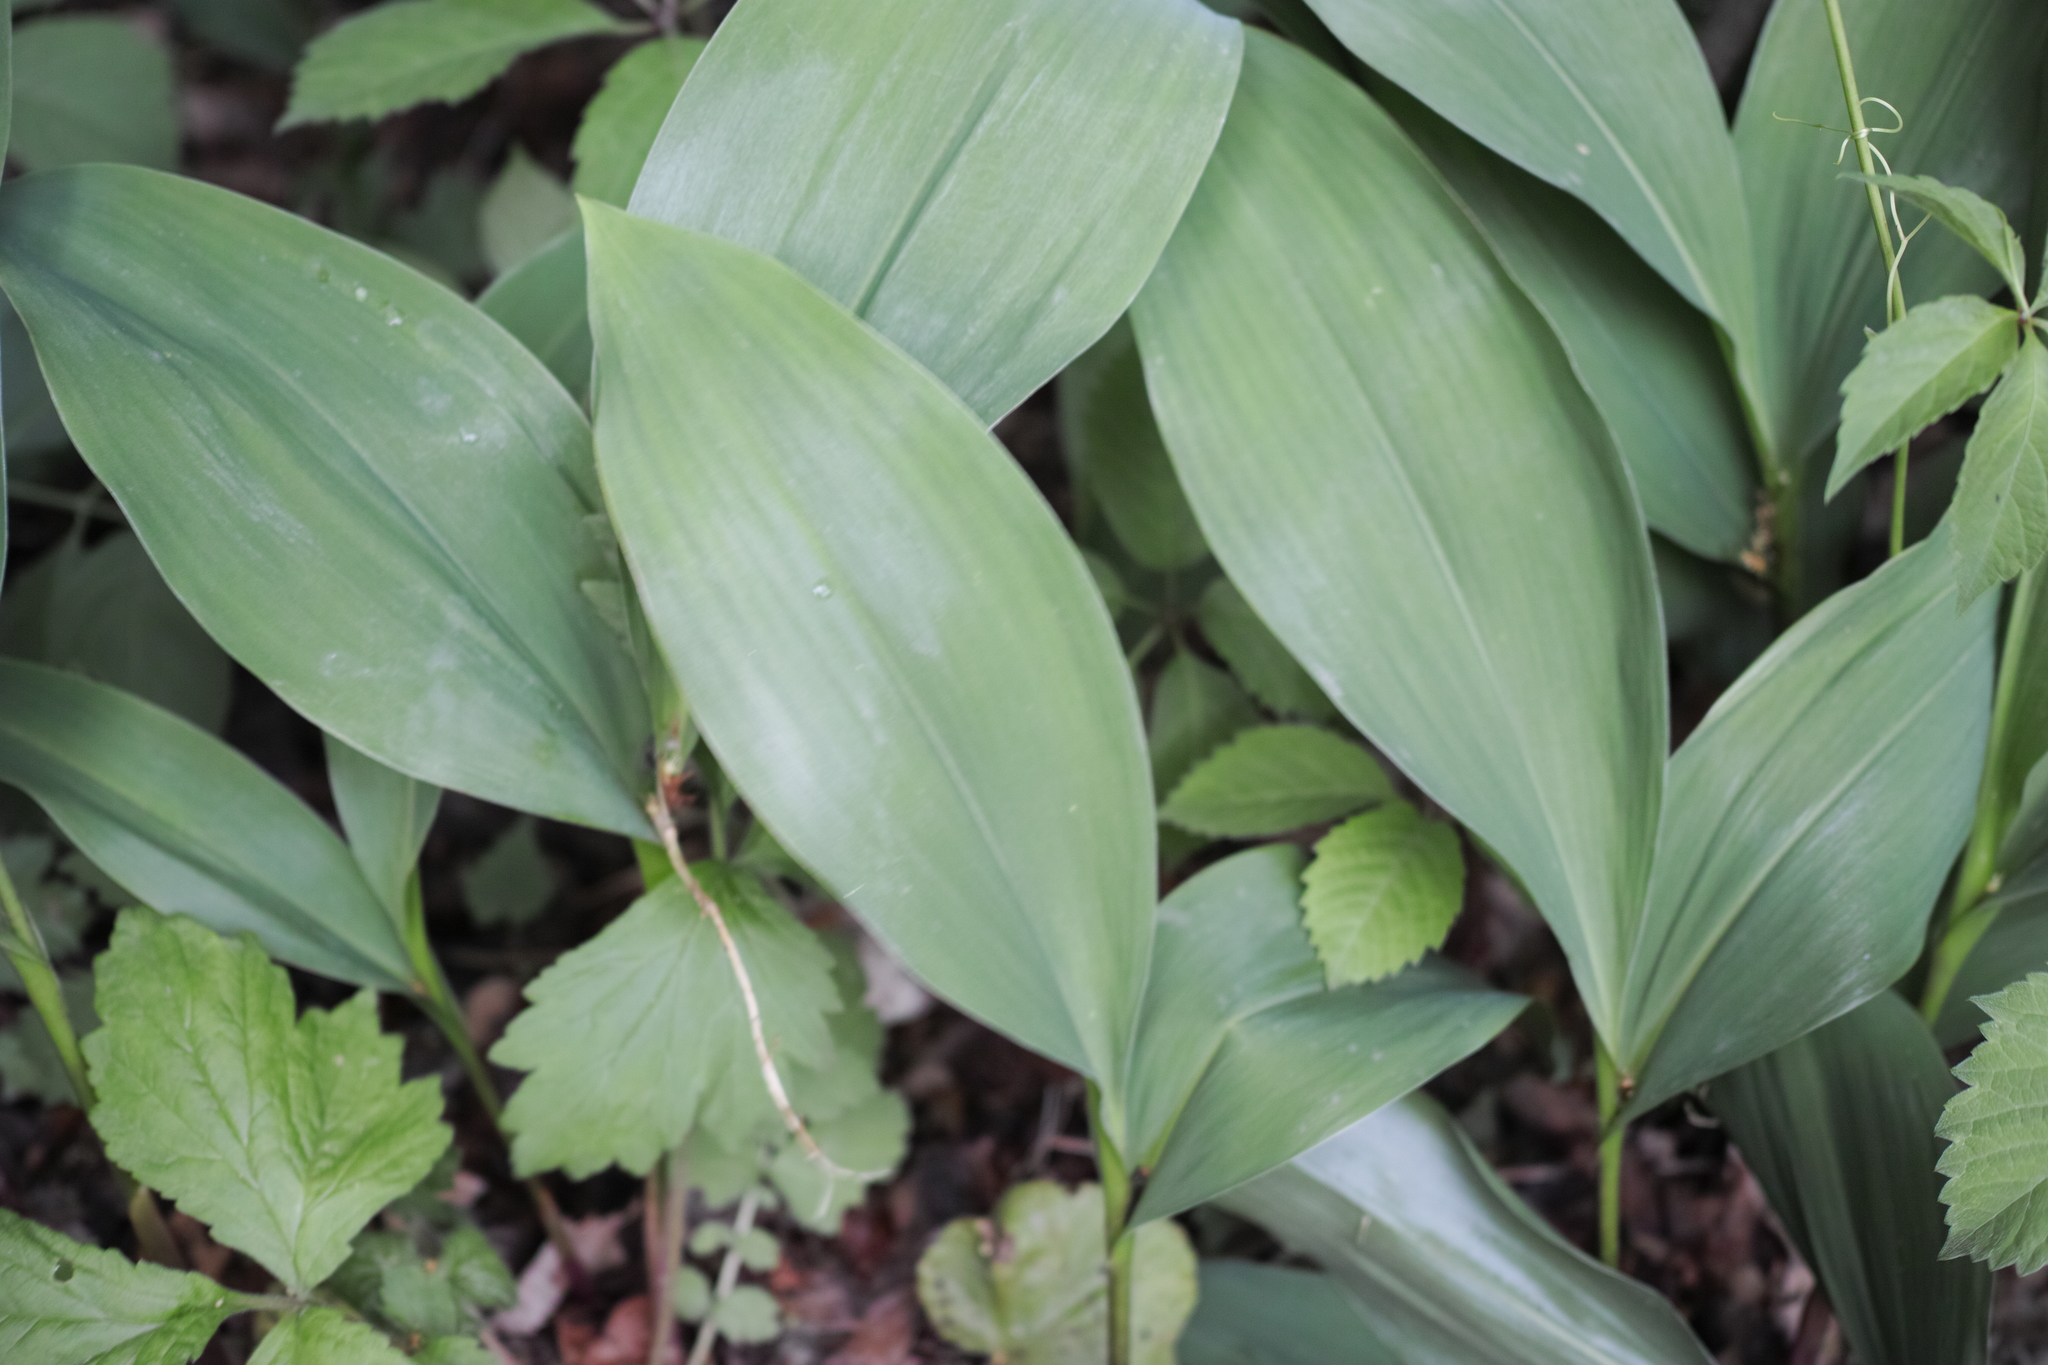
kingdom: Plantae
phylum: Tracheophyta
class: Liliopsida
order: Asparagales
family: Asparagaceae
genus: Convallaria
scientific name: Convallaria majalis
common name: Lily-of-the-valley
